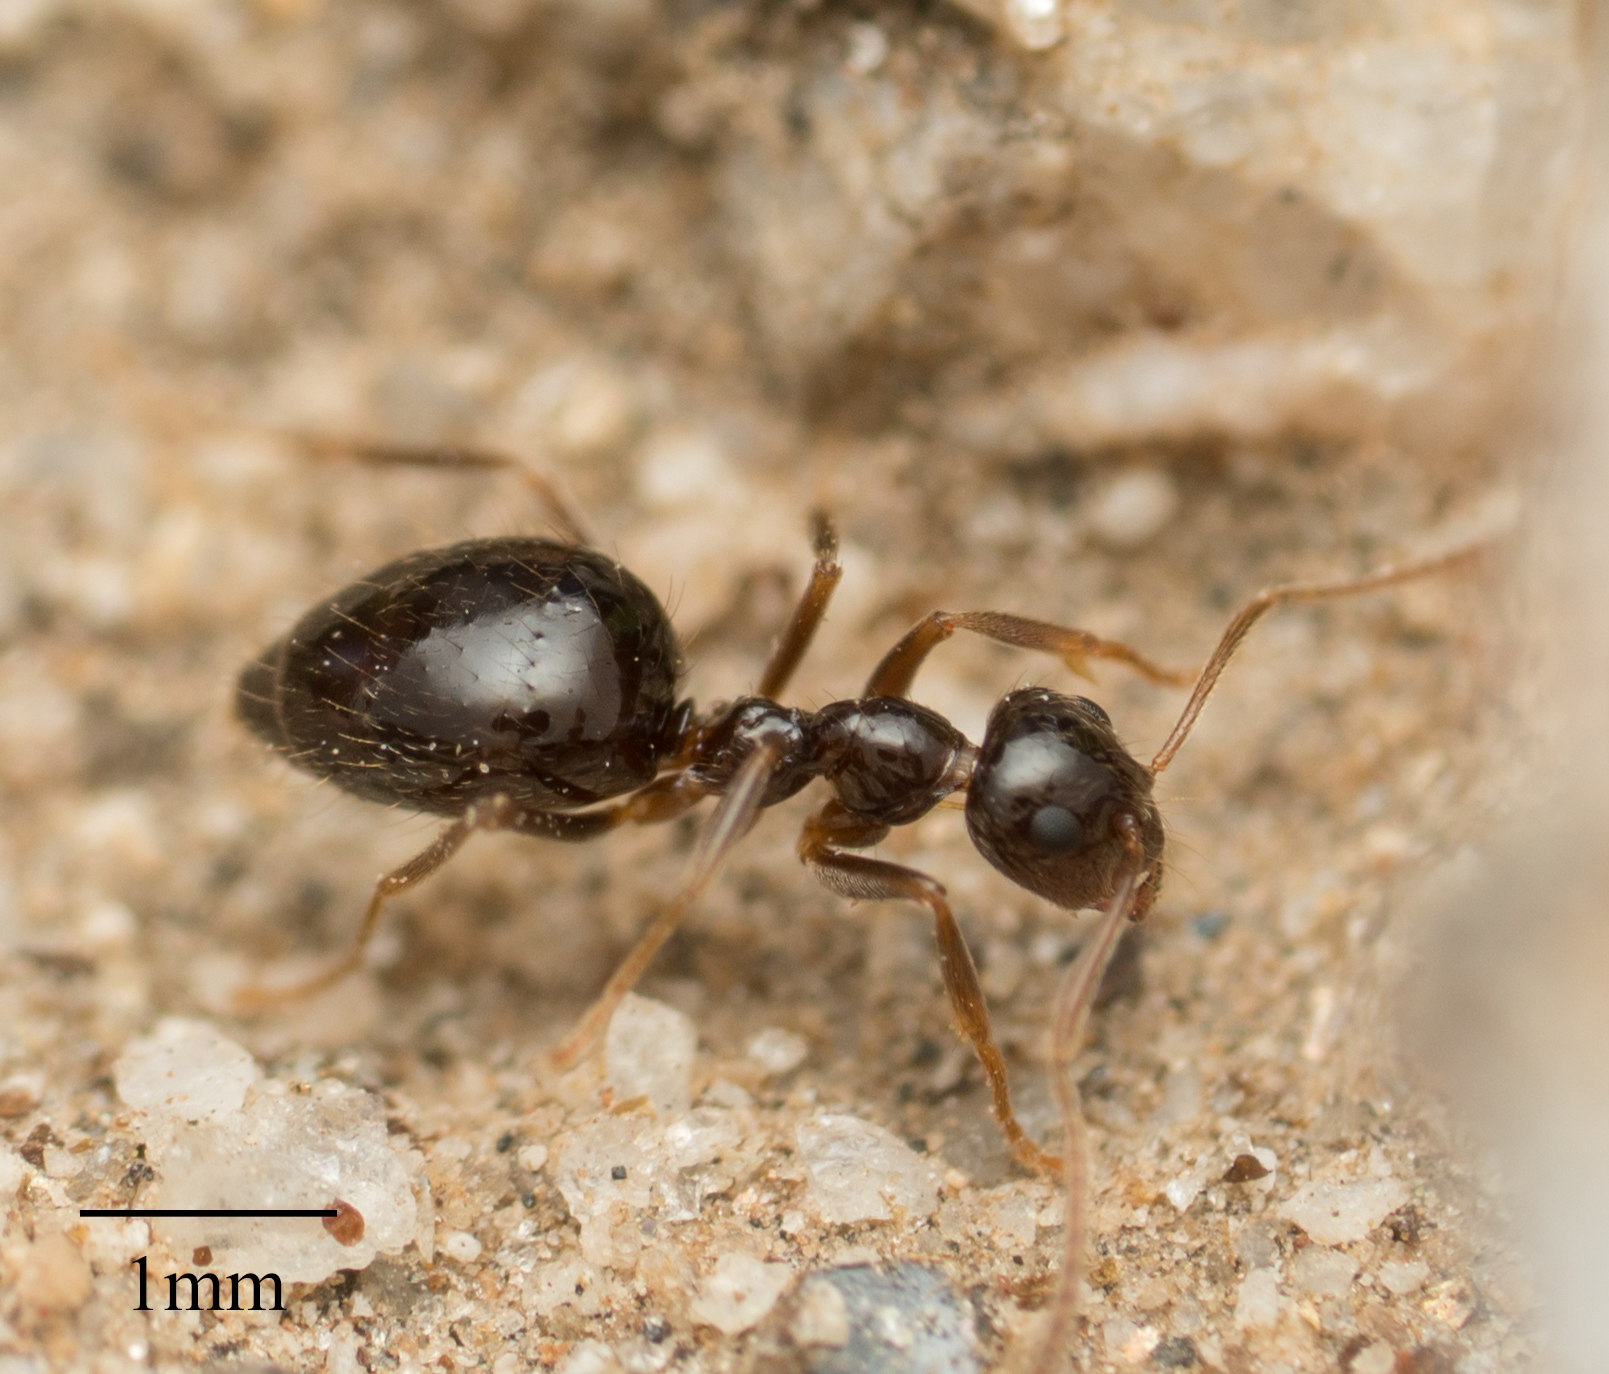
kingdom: Animalia
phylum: Arthropoda
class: Insecta
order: Hymenoptera
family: Formicidae
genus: Prenolepis
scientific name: Prenolepis imparis
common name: Small honey ant
